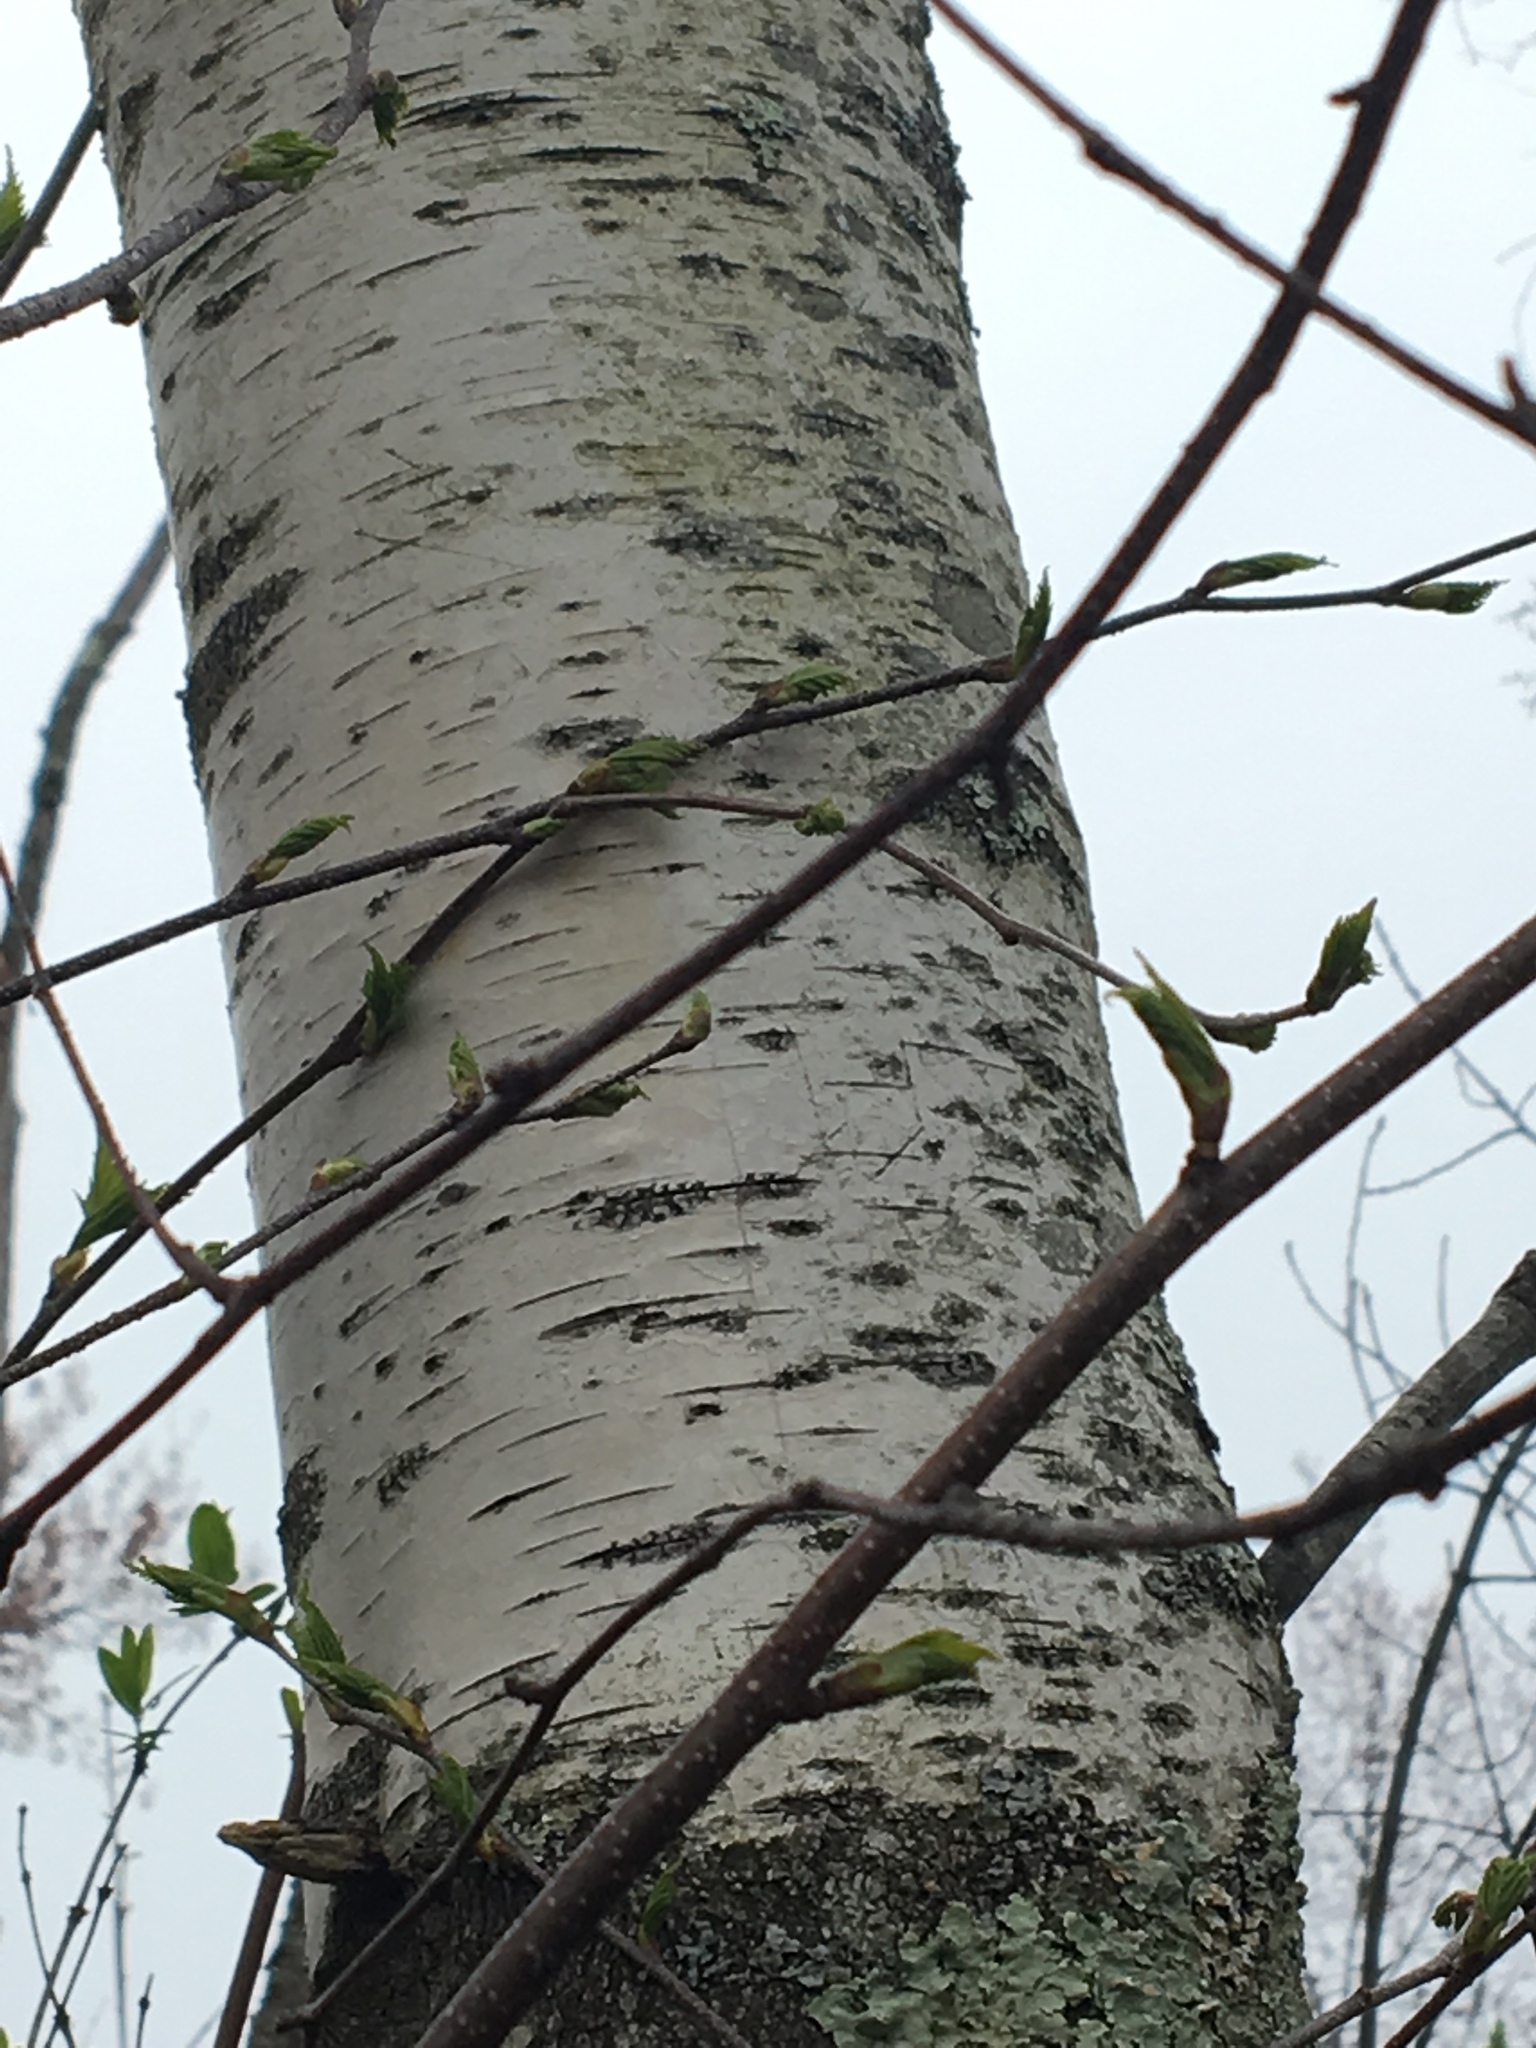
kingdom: Plantae
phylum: Tracheophyta
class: Magnoliopsida
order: Fagales
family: Betulaceae
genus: Betula
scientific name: Betula papyrifera
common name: Paper birch
